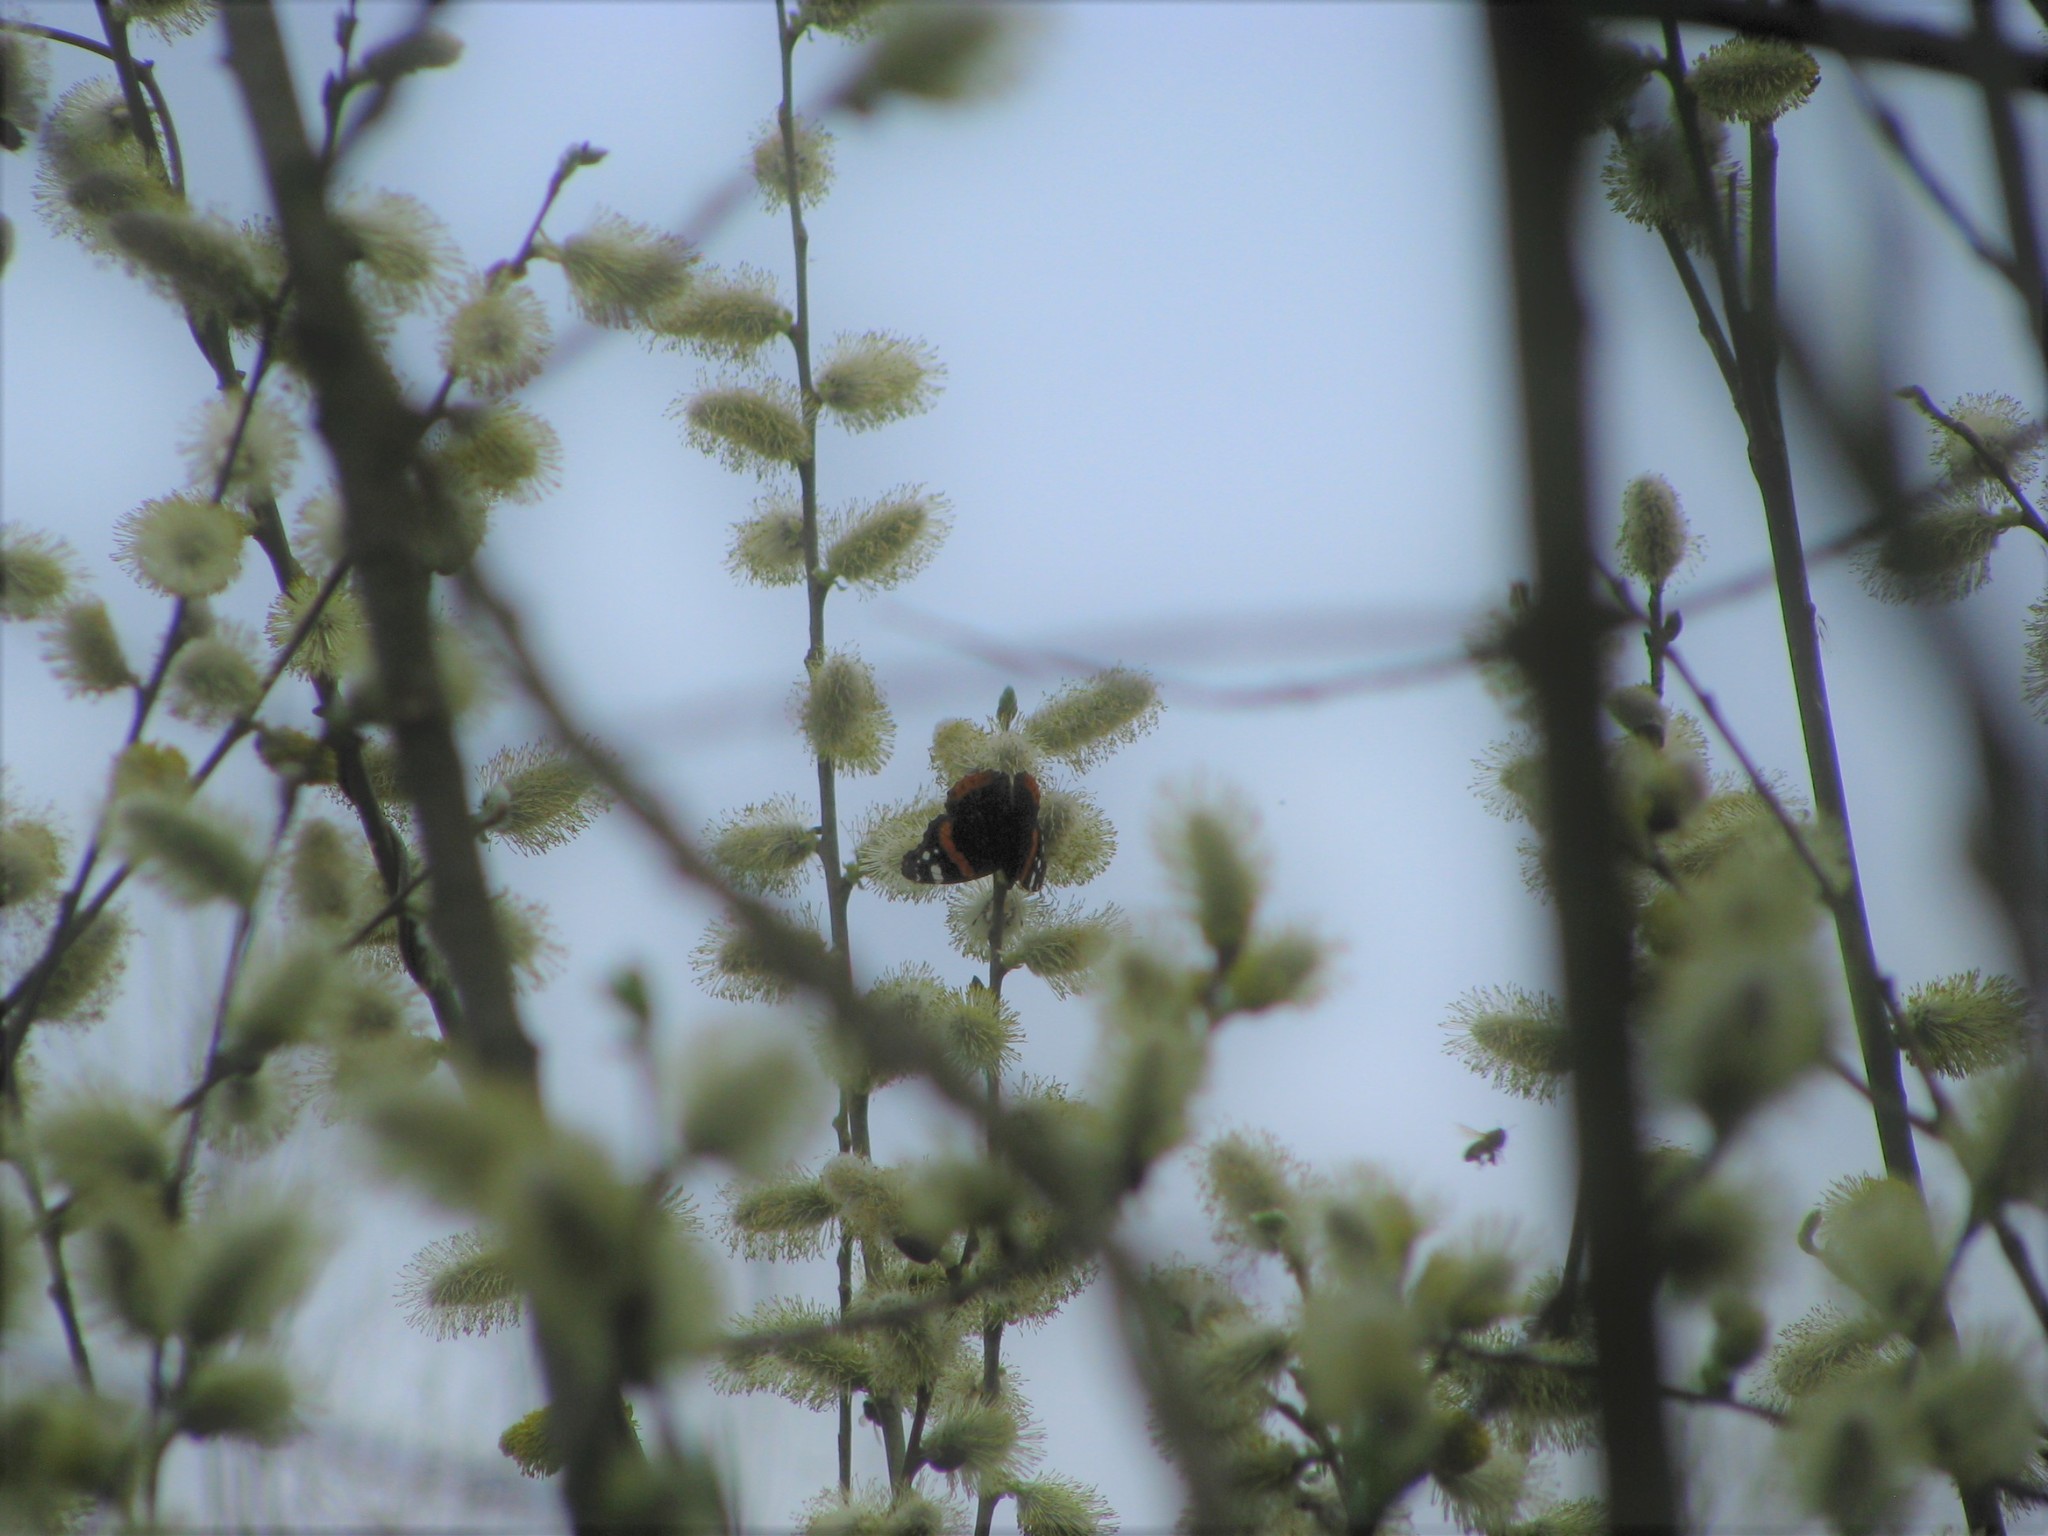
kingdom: Animalia
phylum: Arthropoda
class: Insecta
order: Lepidoptera
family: Nymphalidae
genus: Vanessa
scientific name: Vanessa atalanta
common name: Red admiral
